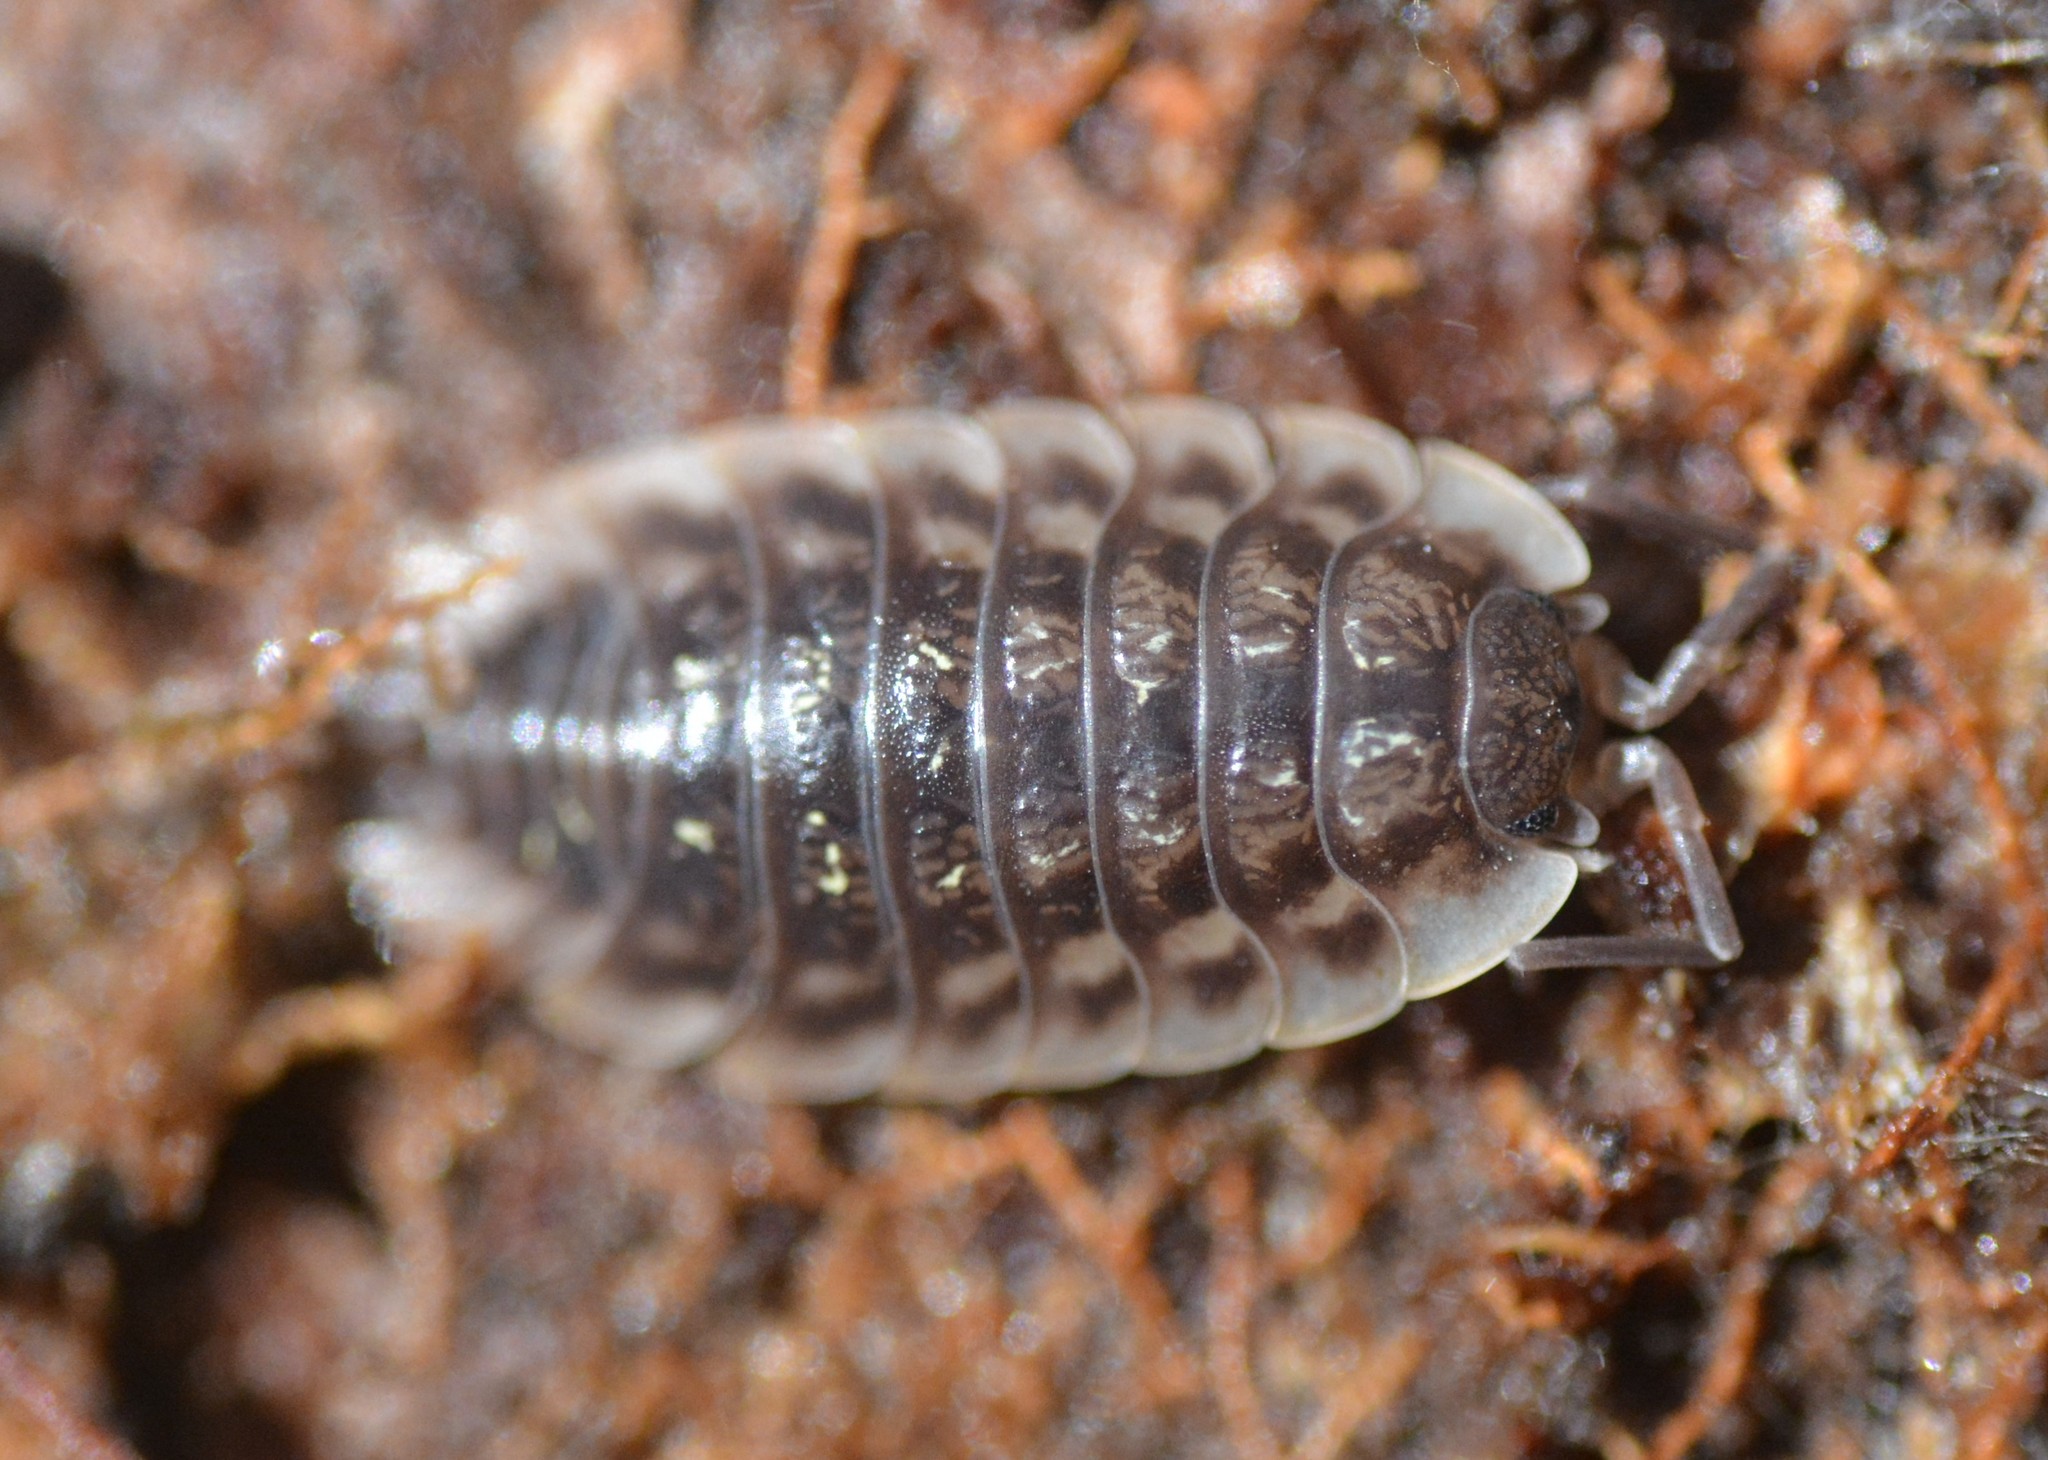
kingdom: Animalia
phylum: Arthropoda
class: Malacostraca
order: Isopoda
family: Oniscidae
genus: Oniscus
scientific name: Oniscus asellus
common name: Common shiny woodlouse
